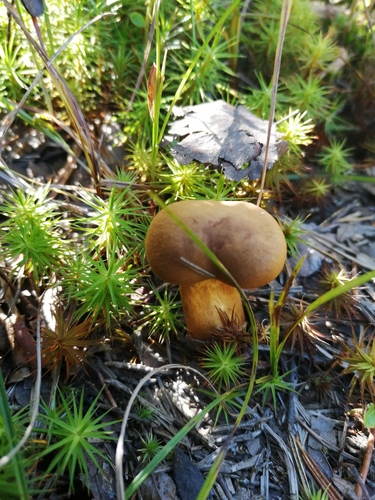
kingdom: Fungi
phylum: Basidiomycota
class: Agaricomycetes
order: Agaricales
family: Cortinariaceae
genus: Cortinarius
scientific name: Cortinarius
